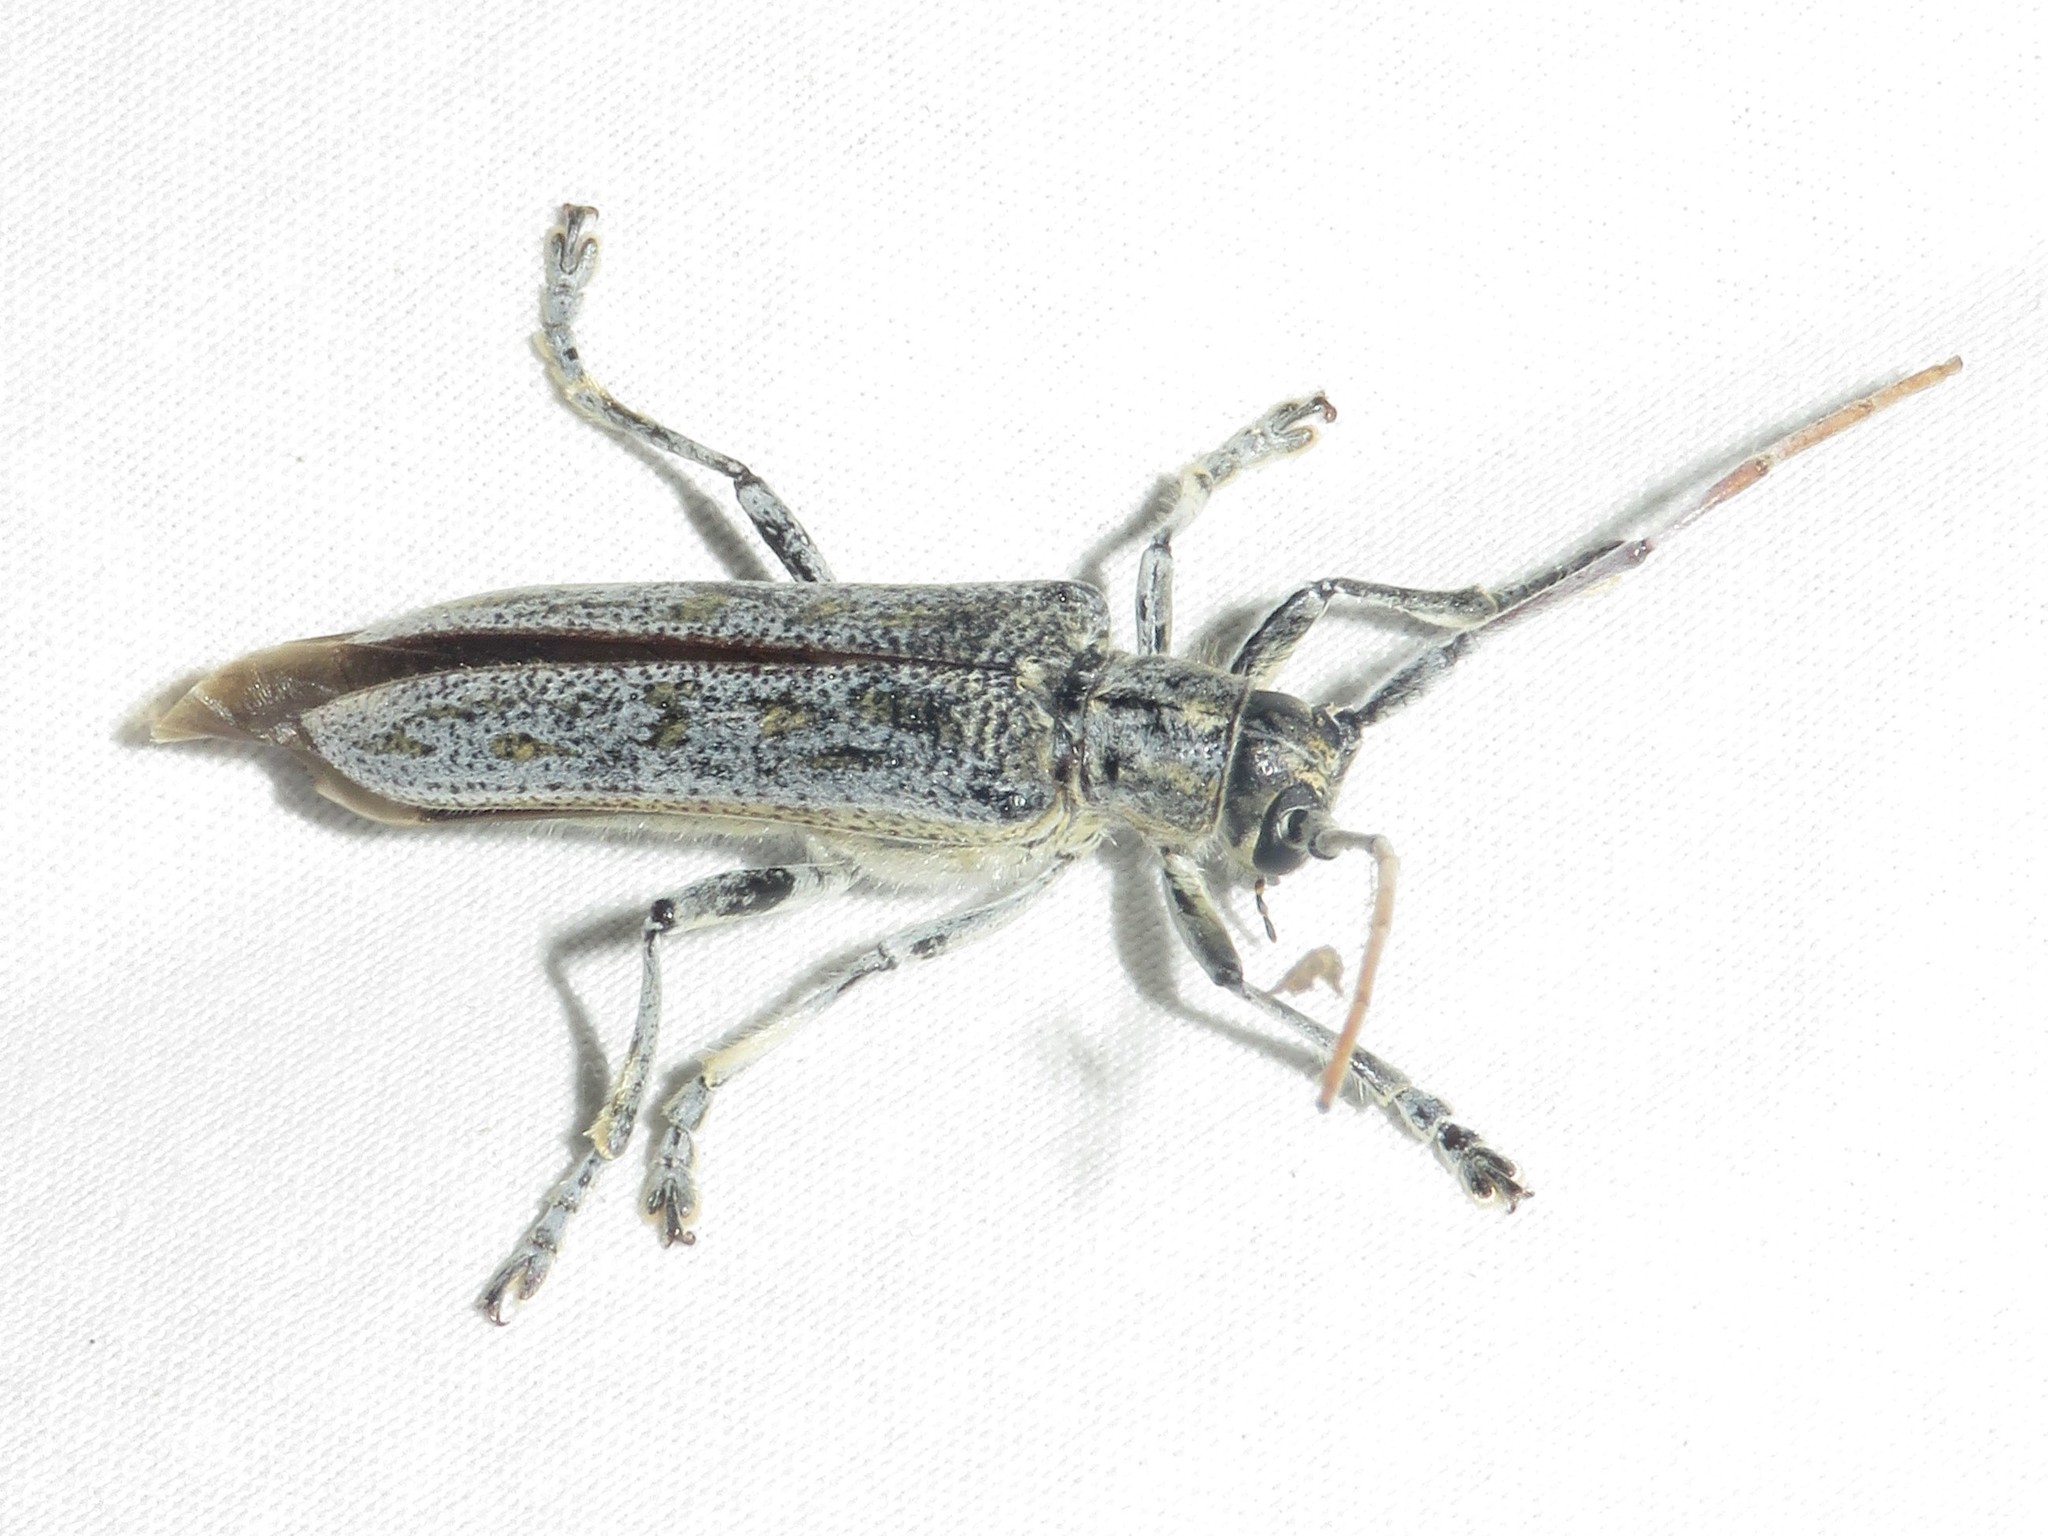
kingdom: Animalia
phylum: Arthropoda
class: Insecta
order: Coleoptera
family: Cerambycidae
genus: Saperda
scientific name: Saperda calcarata
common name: Poplar borer
